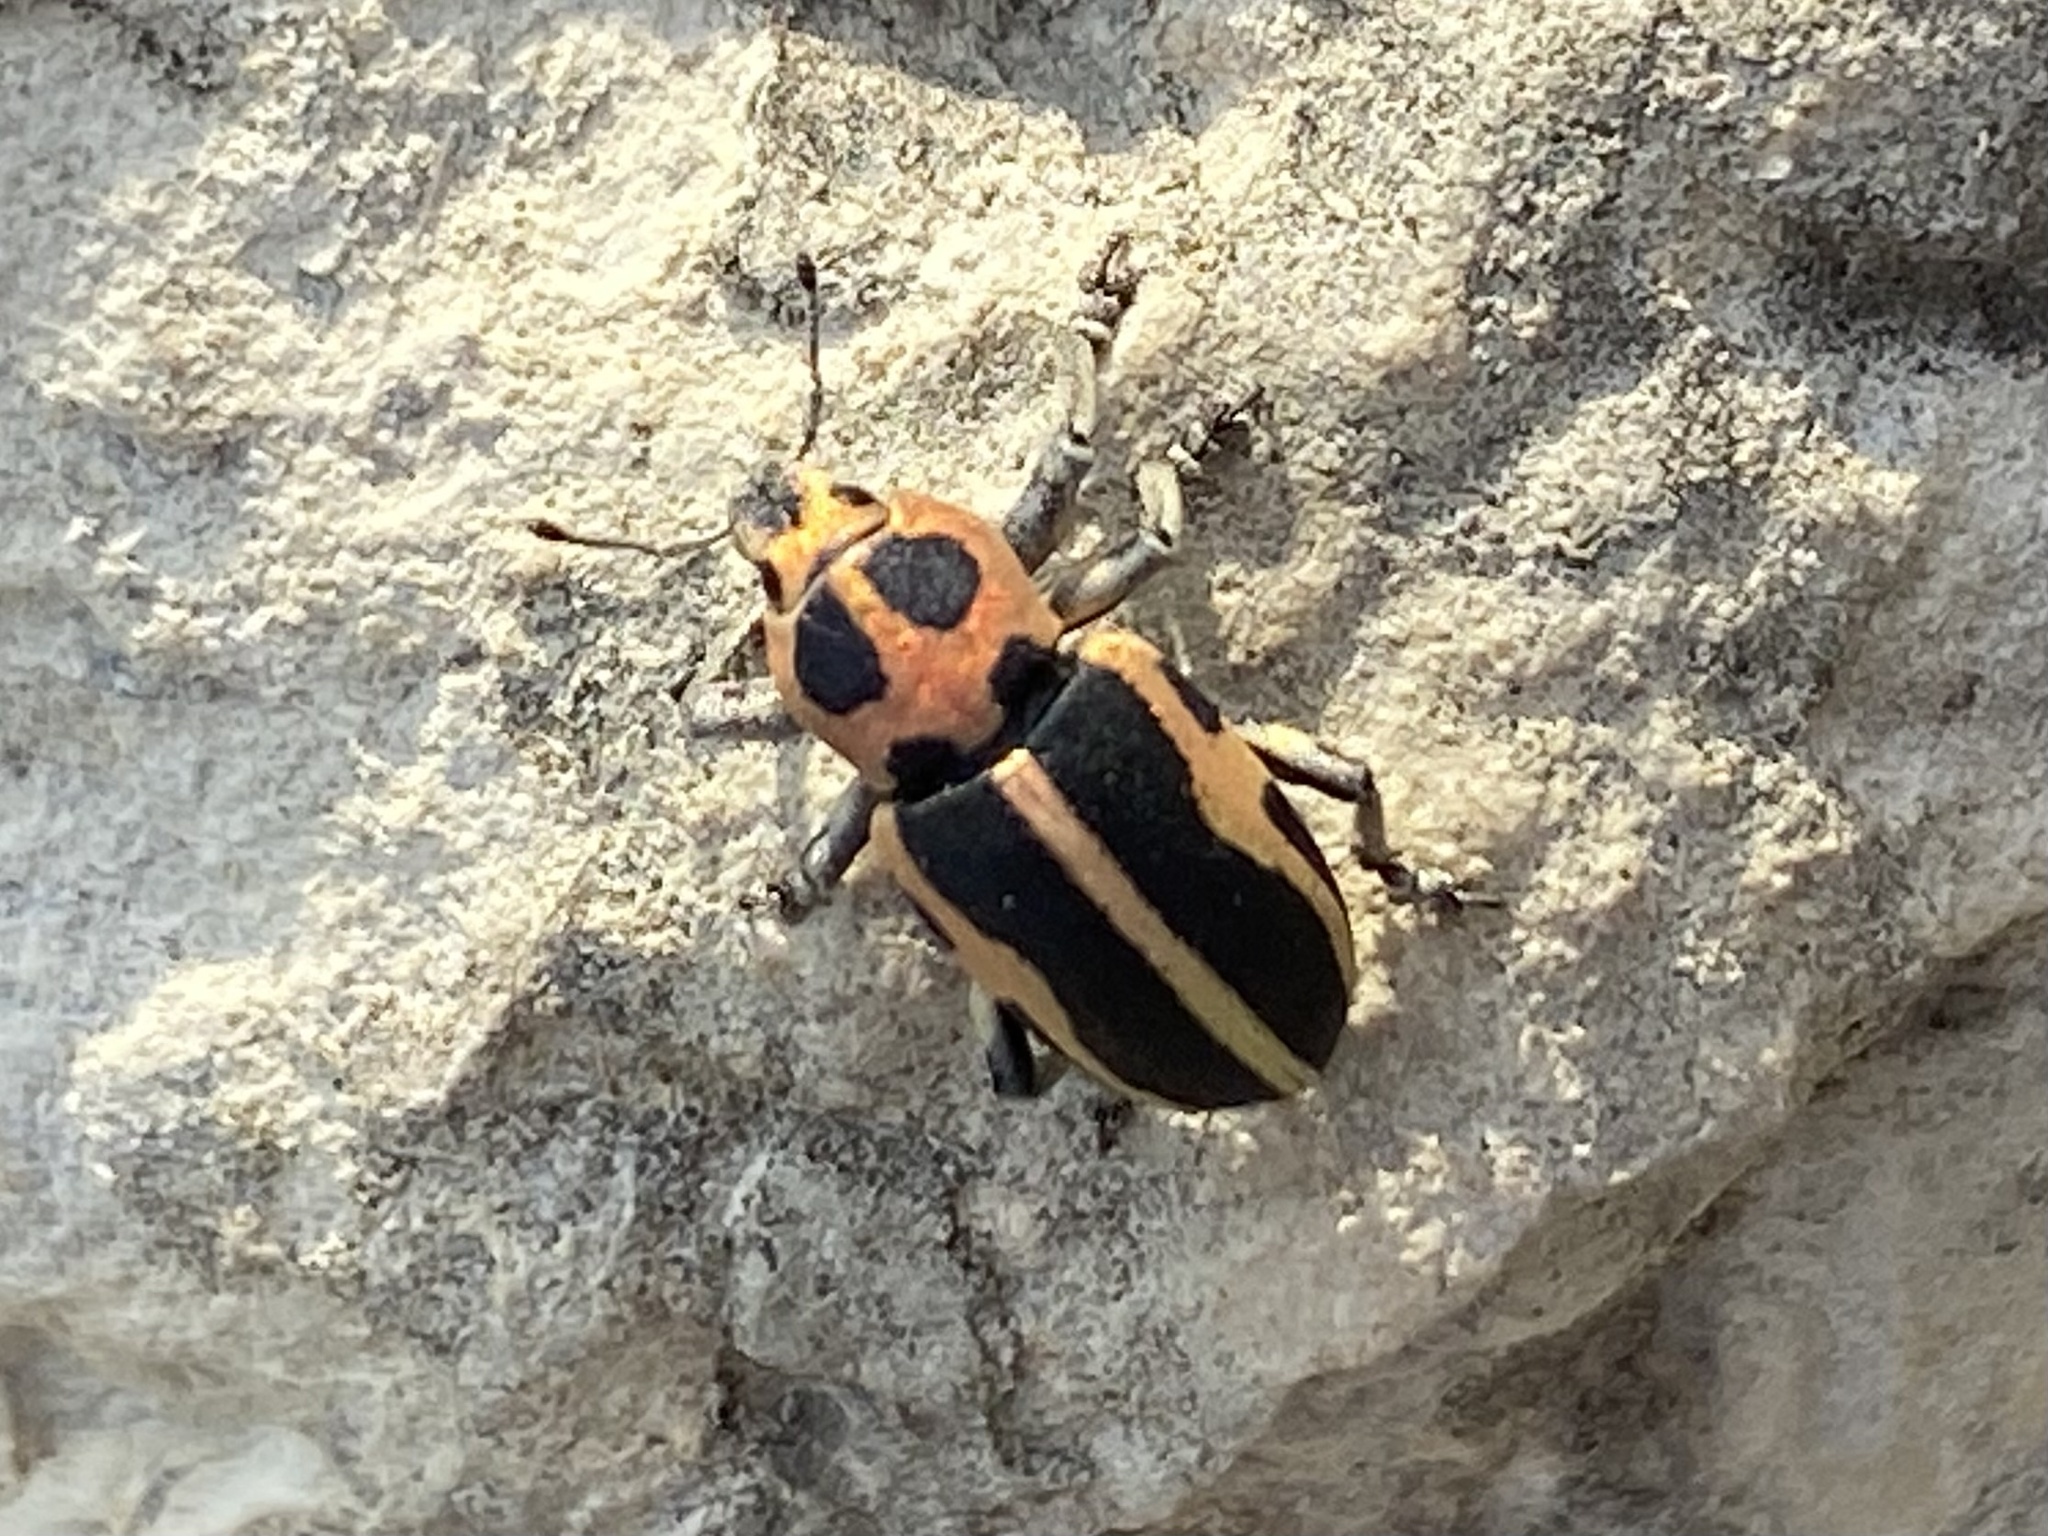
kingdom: Animalia
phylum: Arthropoda
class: Insecta
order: Coleoptera
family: Curculionidae
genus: Eudiagogus
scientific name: Eudiagogus pulcher
